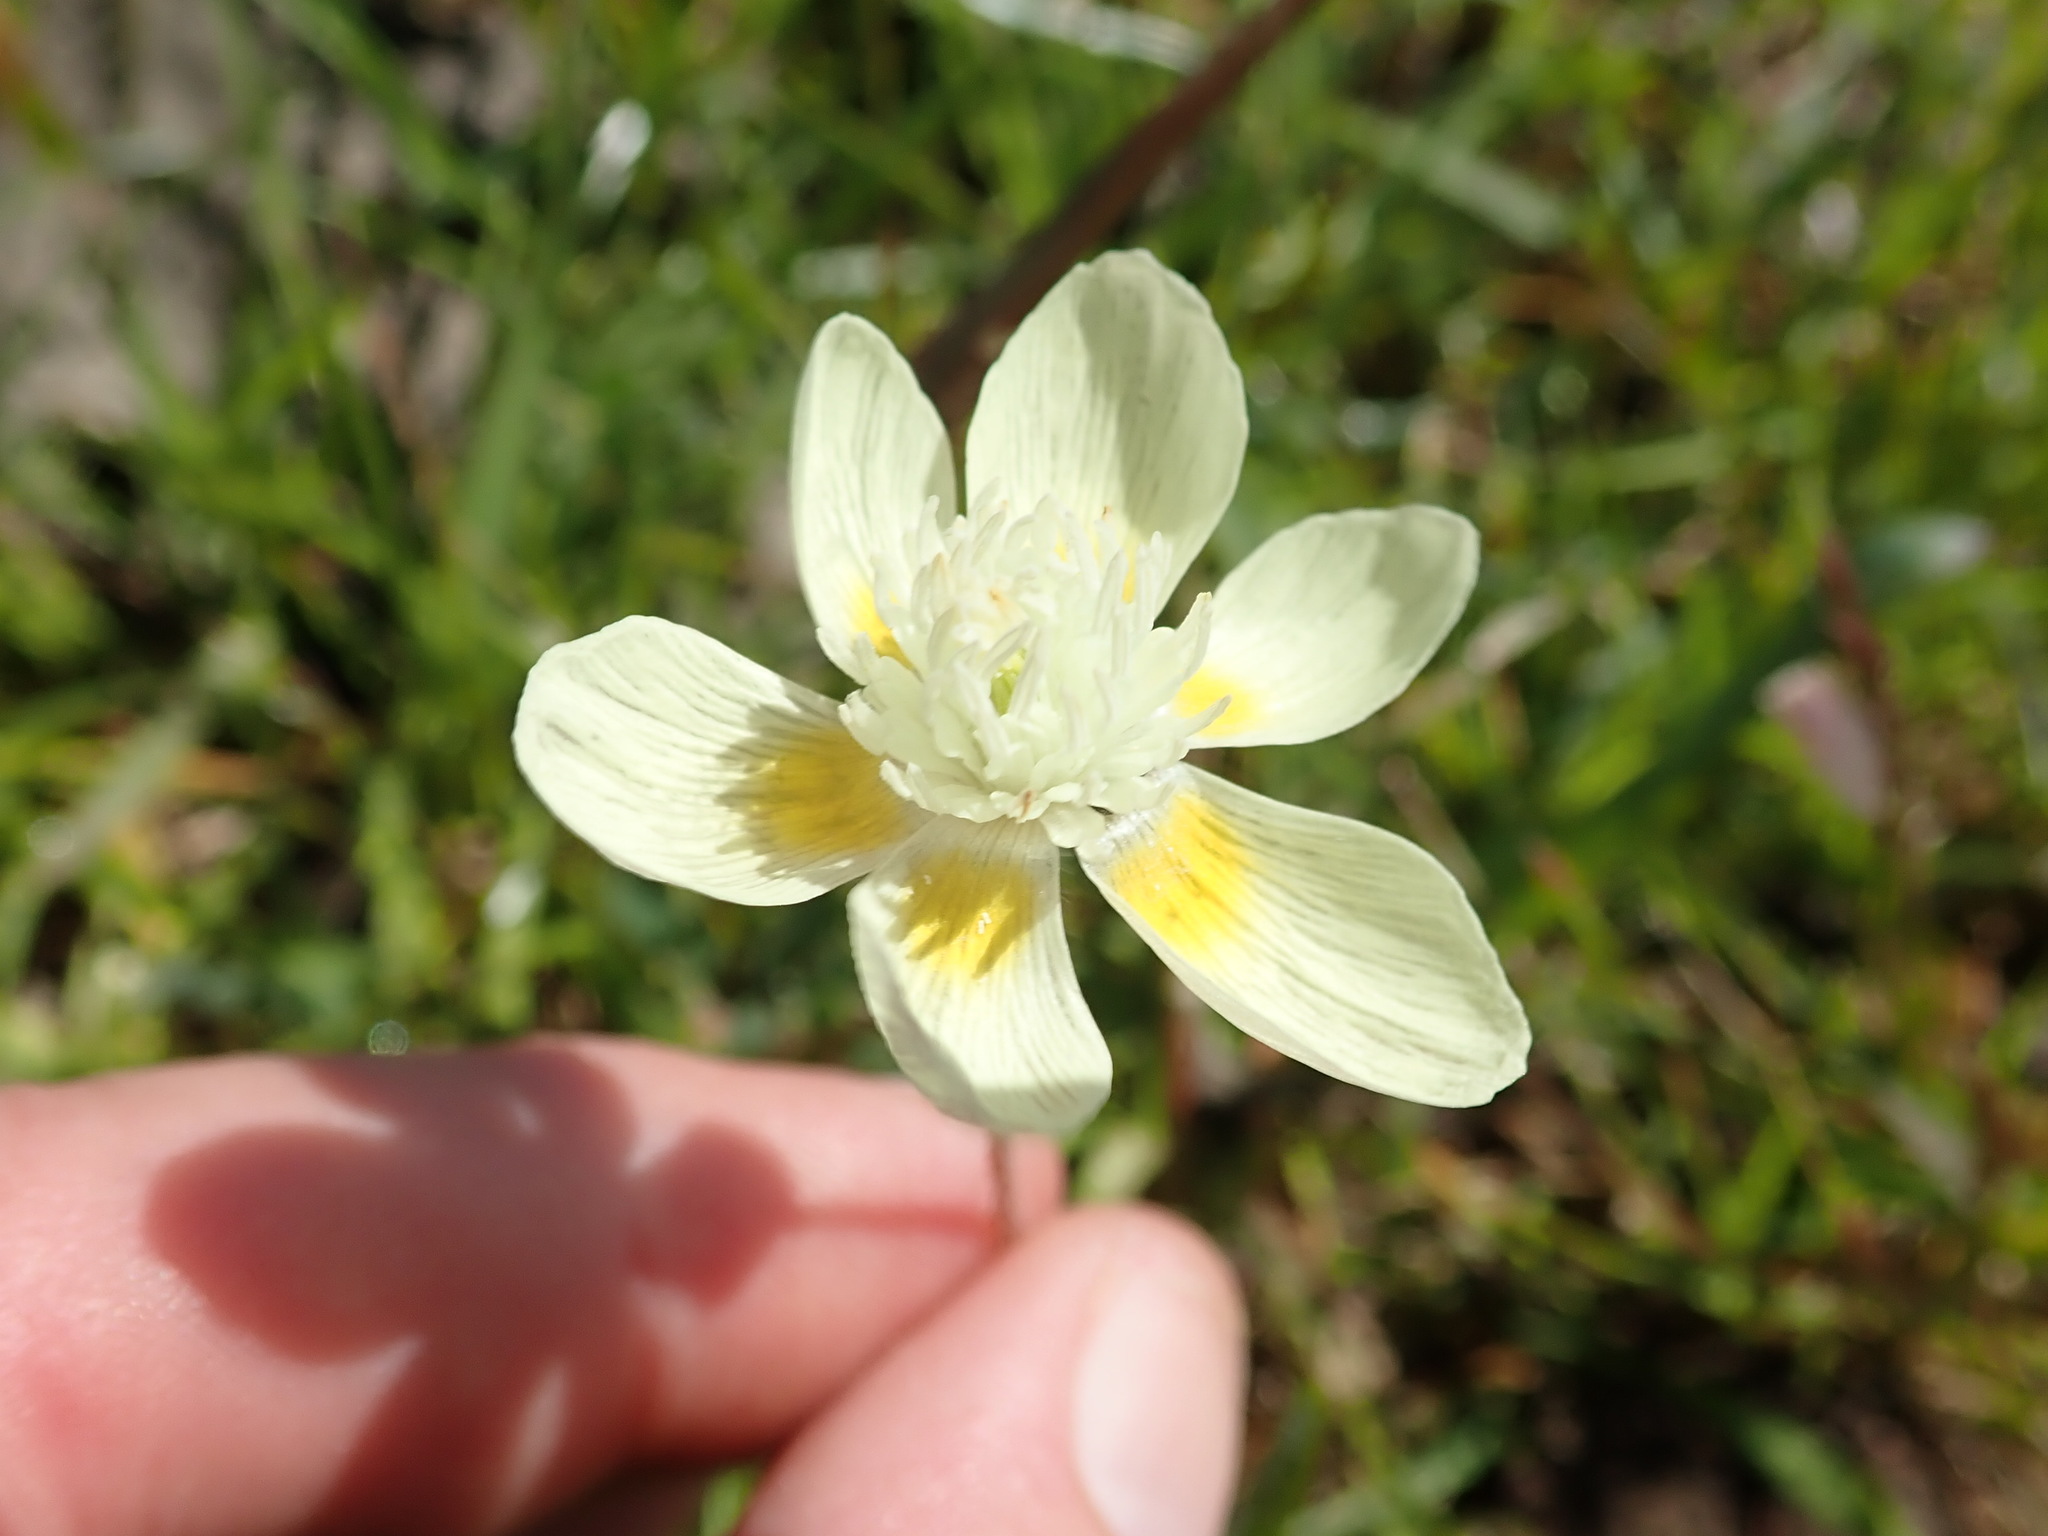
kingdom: Plantae
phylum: Tracheophyta
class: Magnoliopsida
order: Ranunculales
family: Papaveraceae
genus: Platystemon
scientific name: Platystemon californicus
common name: Cream-cups
